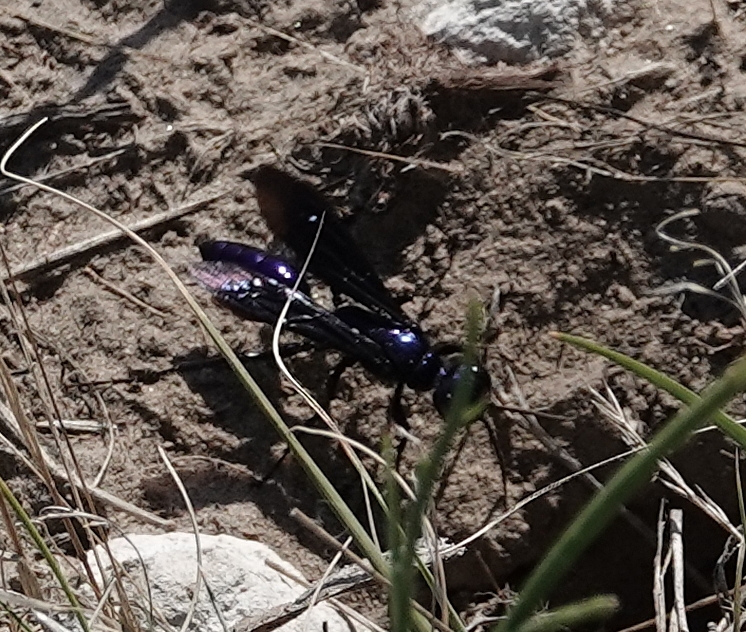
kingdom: Animalia
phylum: Arthropoda
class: Insecta
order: Hymenoptera
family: Sphecidae
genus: Chlorion
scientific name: Chlorion aerarium
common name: Steel-blue cricket hunter
